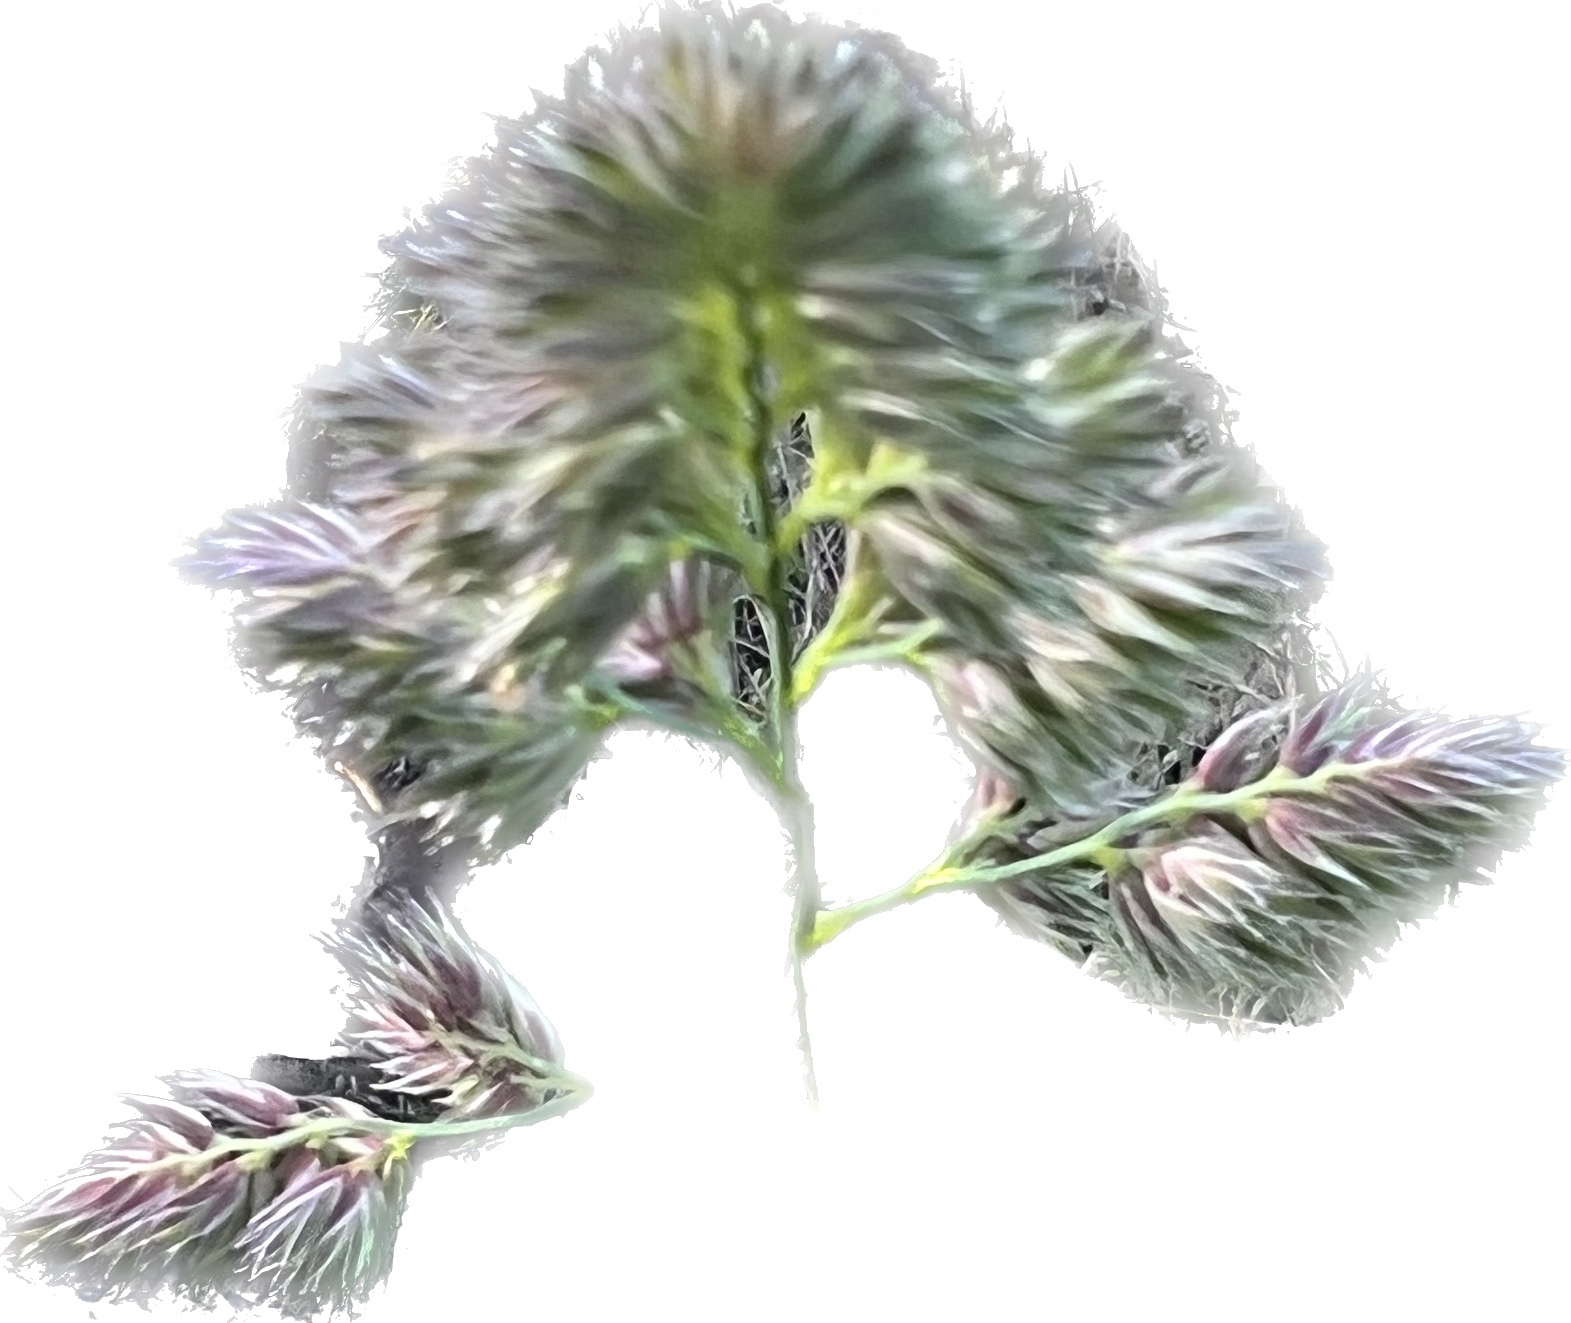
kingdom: Plantae
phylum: Tracheophyta
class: Liliopsida
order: Poales
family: Poaceae
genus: Dactylis
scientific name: Dactylis glomerata
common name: Orchardgrass
